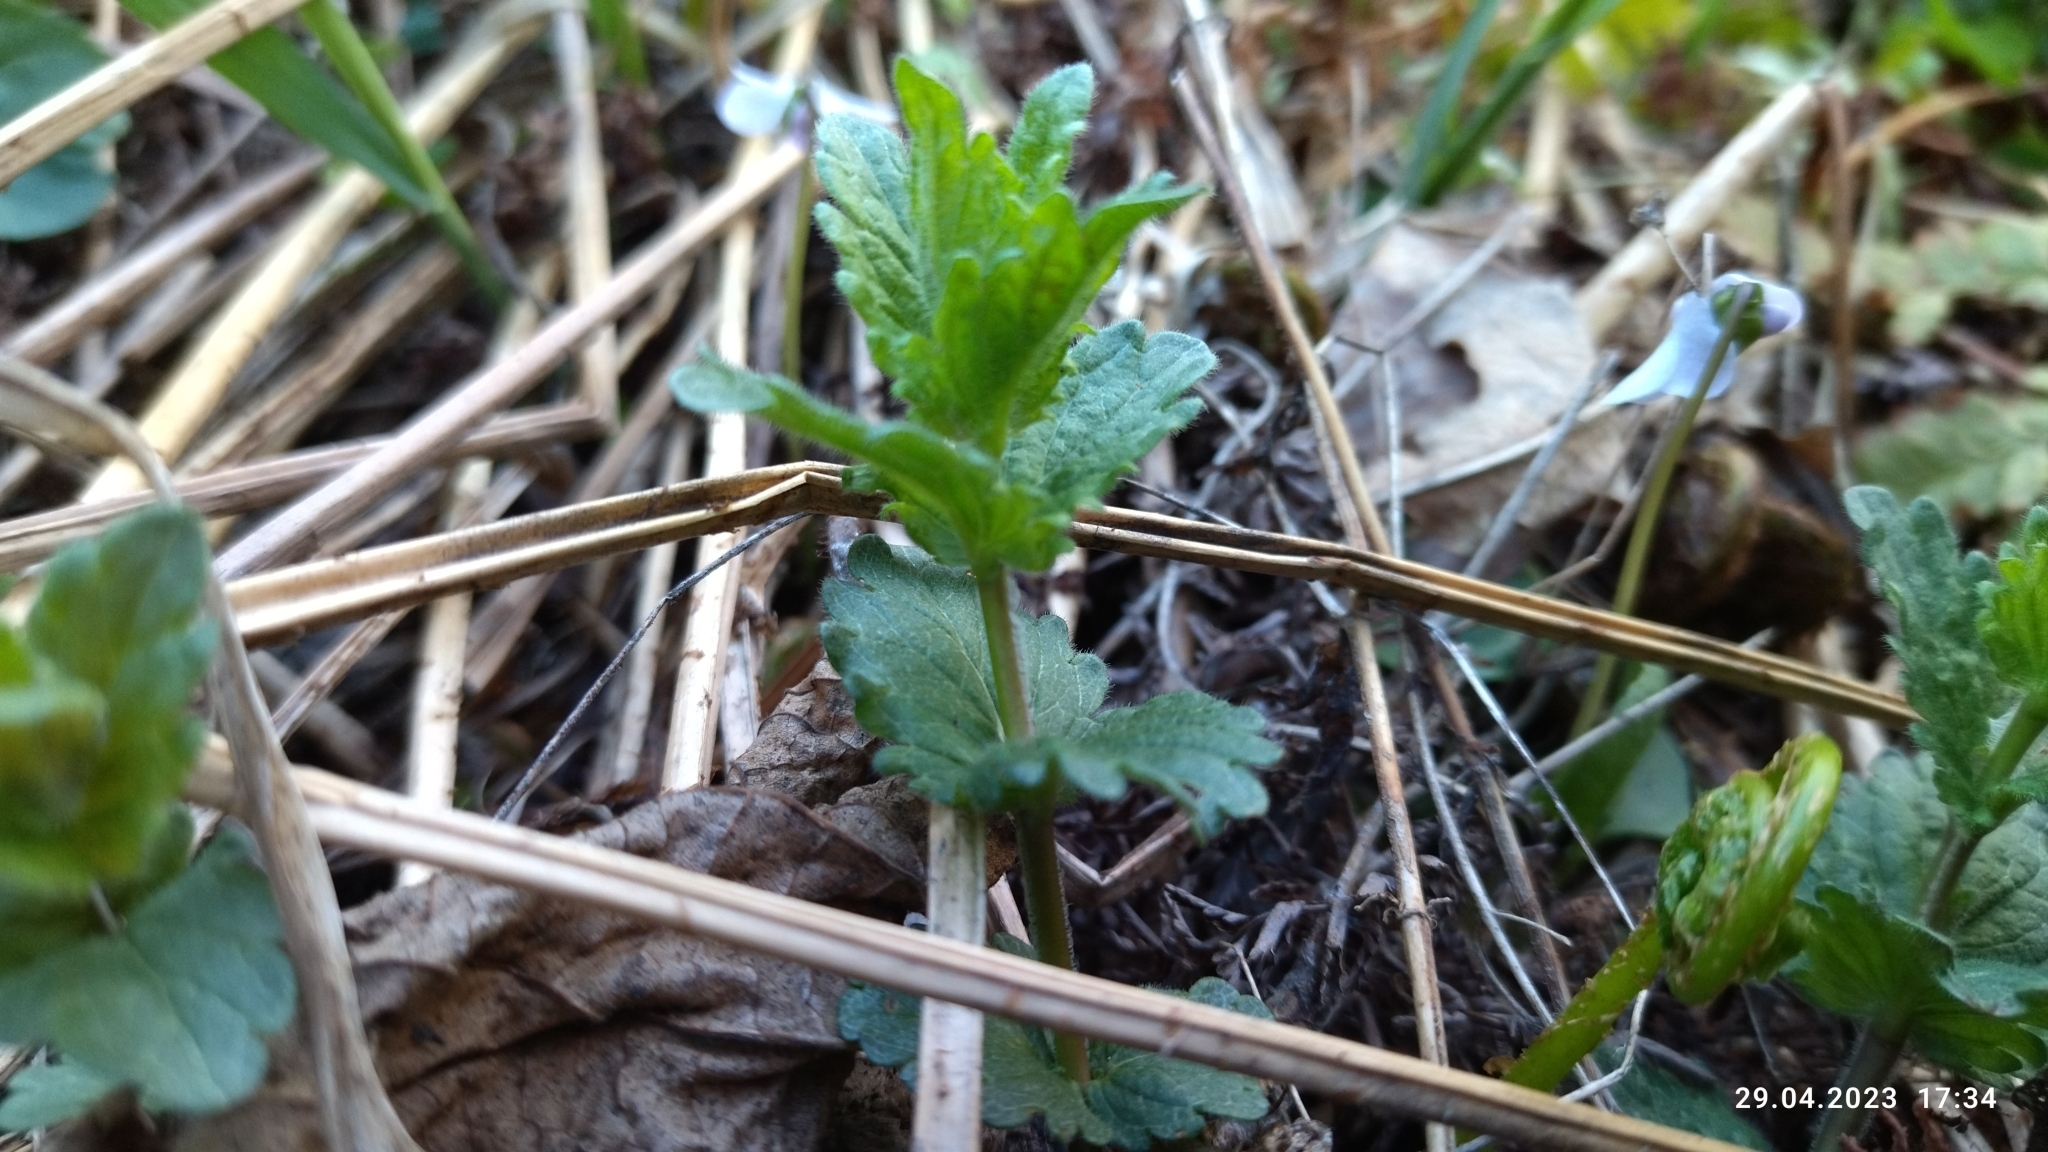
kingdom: Plantae
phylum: Tracheophyta
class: Magnoliopsida
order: Lamiales
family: Plantaginaceae
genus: Veronica
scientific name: Veronica chamaedrys
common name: Germander speedwell
